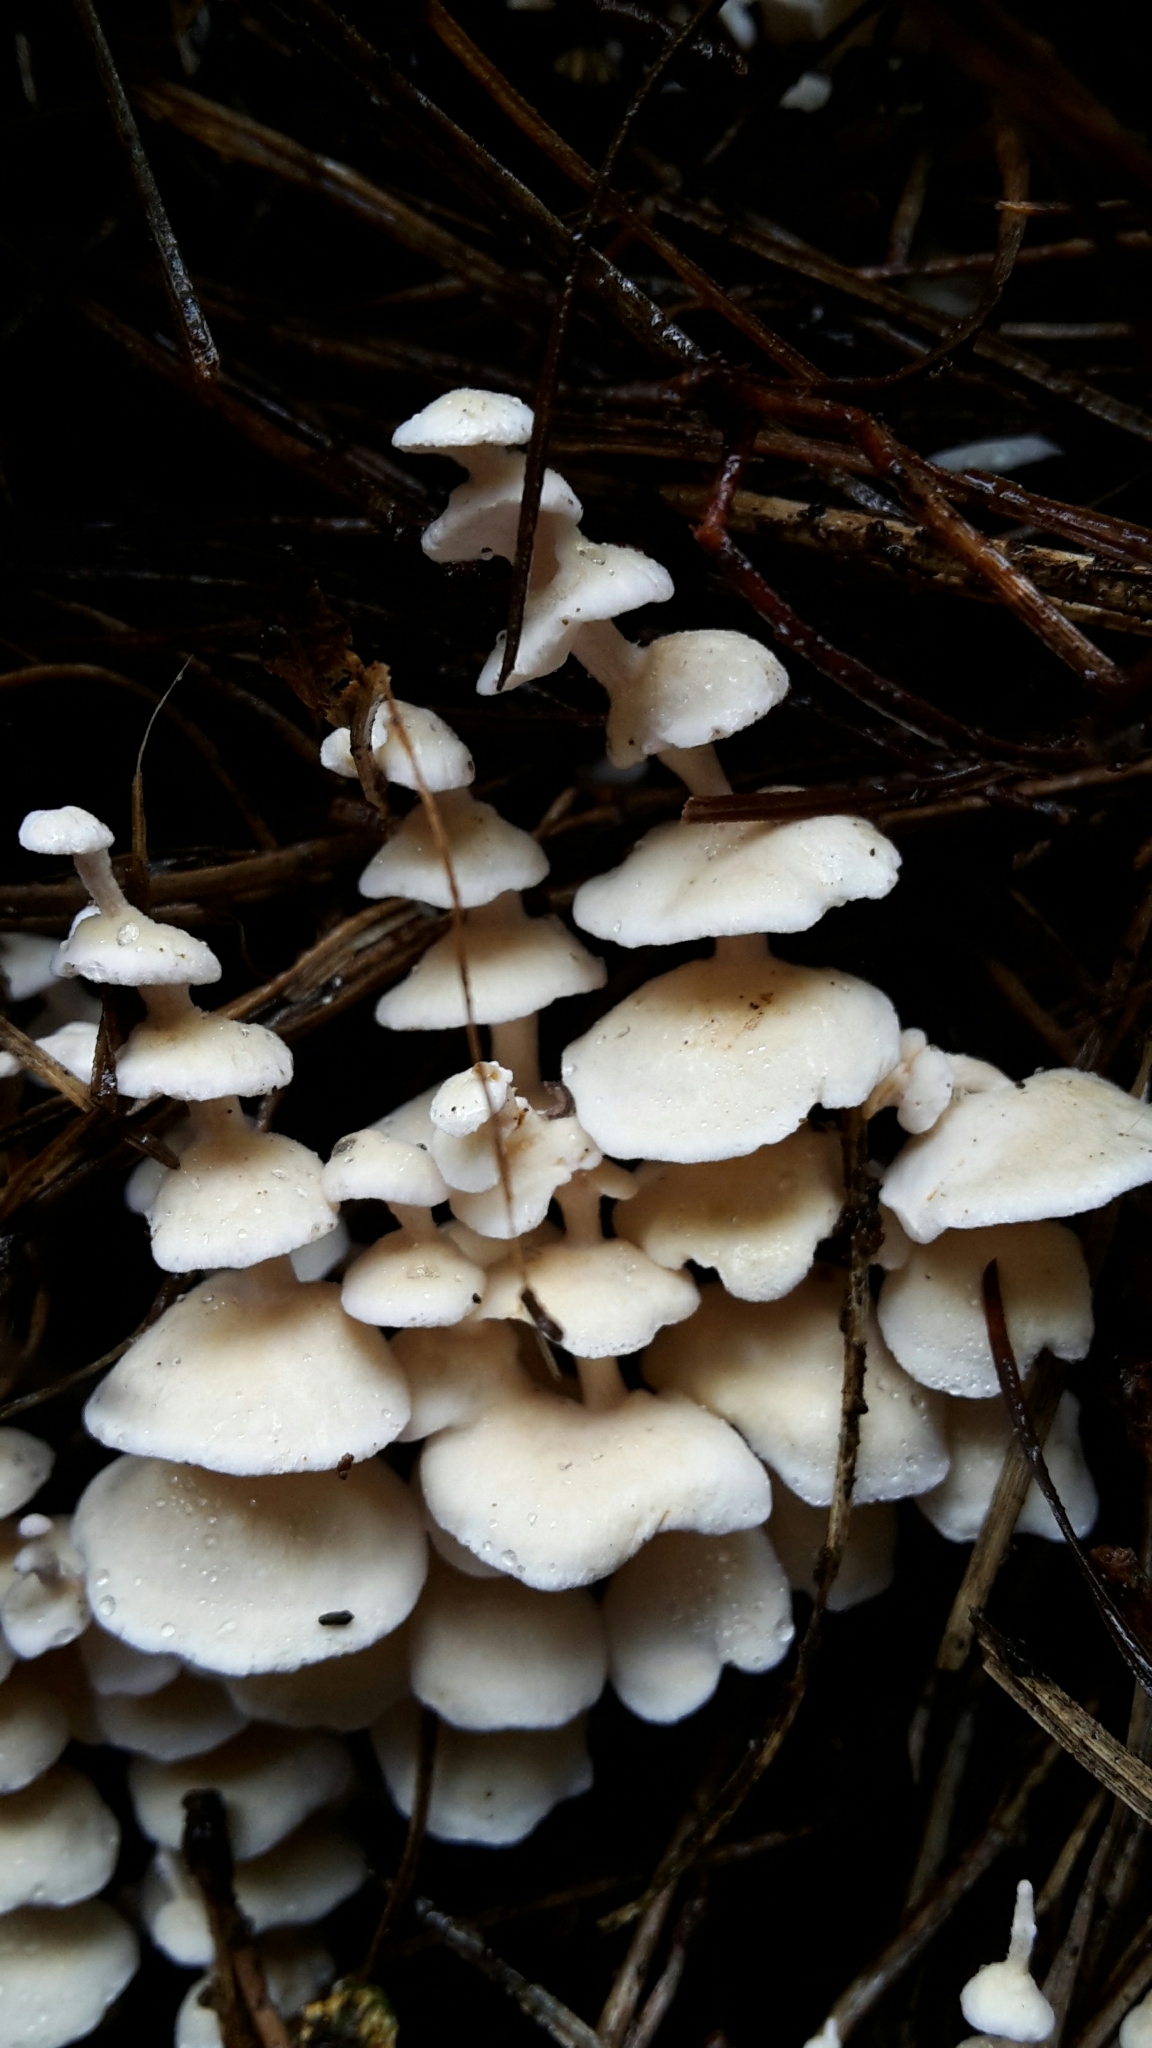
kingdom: Fungi
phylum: Basidiomycota
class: Agaricomycetes
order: Amylocorticiales
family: Amylocorticiaceae
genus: Podoserpula
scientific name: Podoserpula pusio
